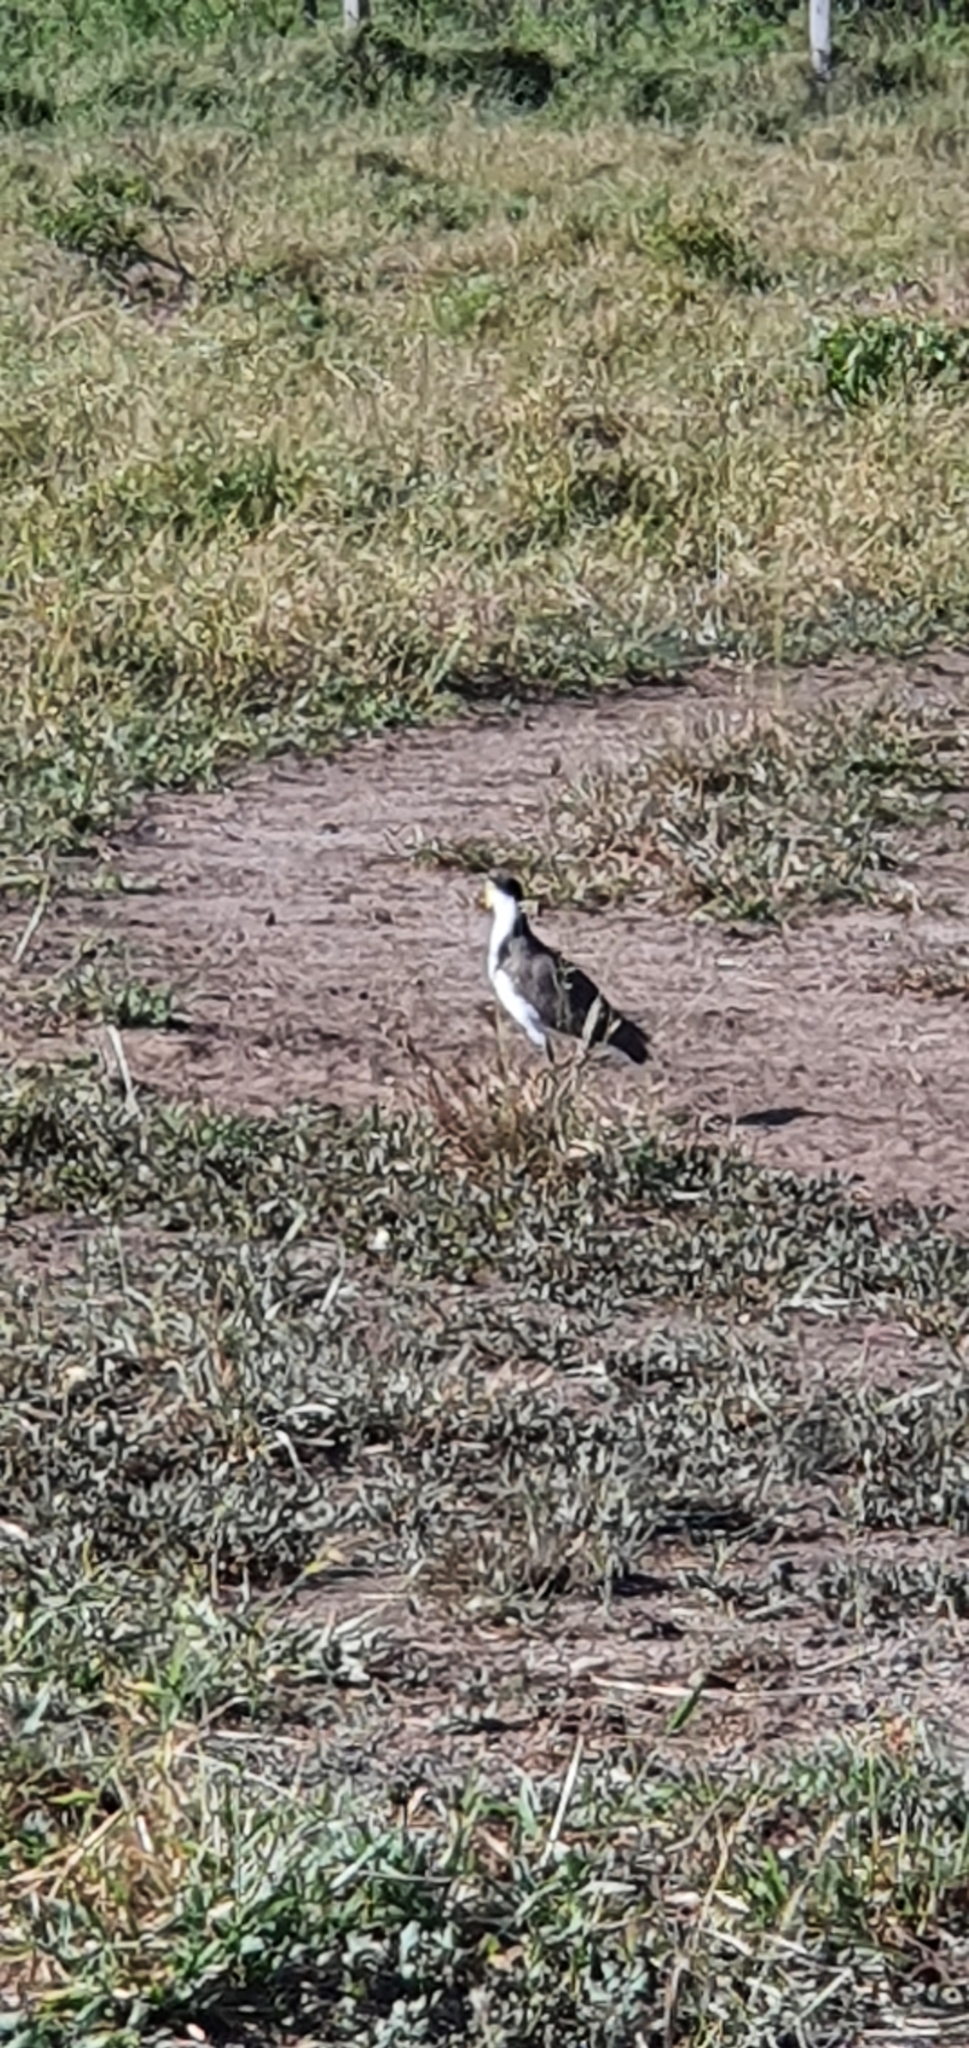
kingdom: Animalia
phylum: Chordata
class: Aves
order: Charadriiformes
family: Charadriidae
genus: Vanellus
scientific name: Vanellus miles
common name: Masked lapwing
